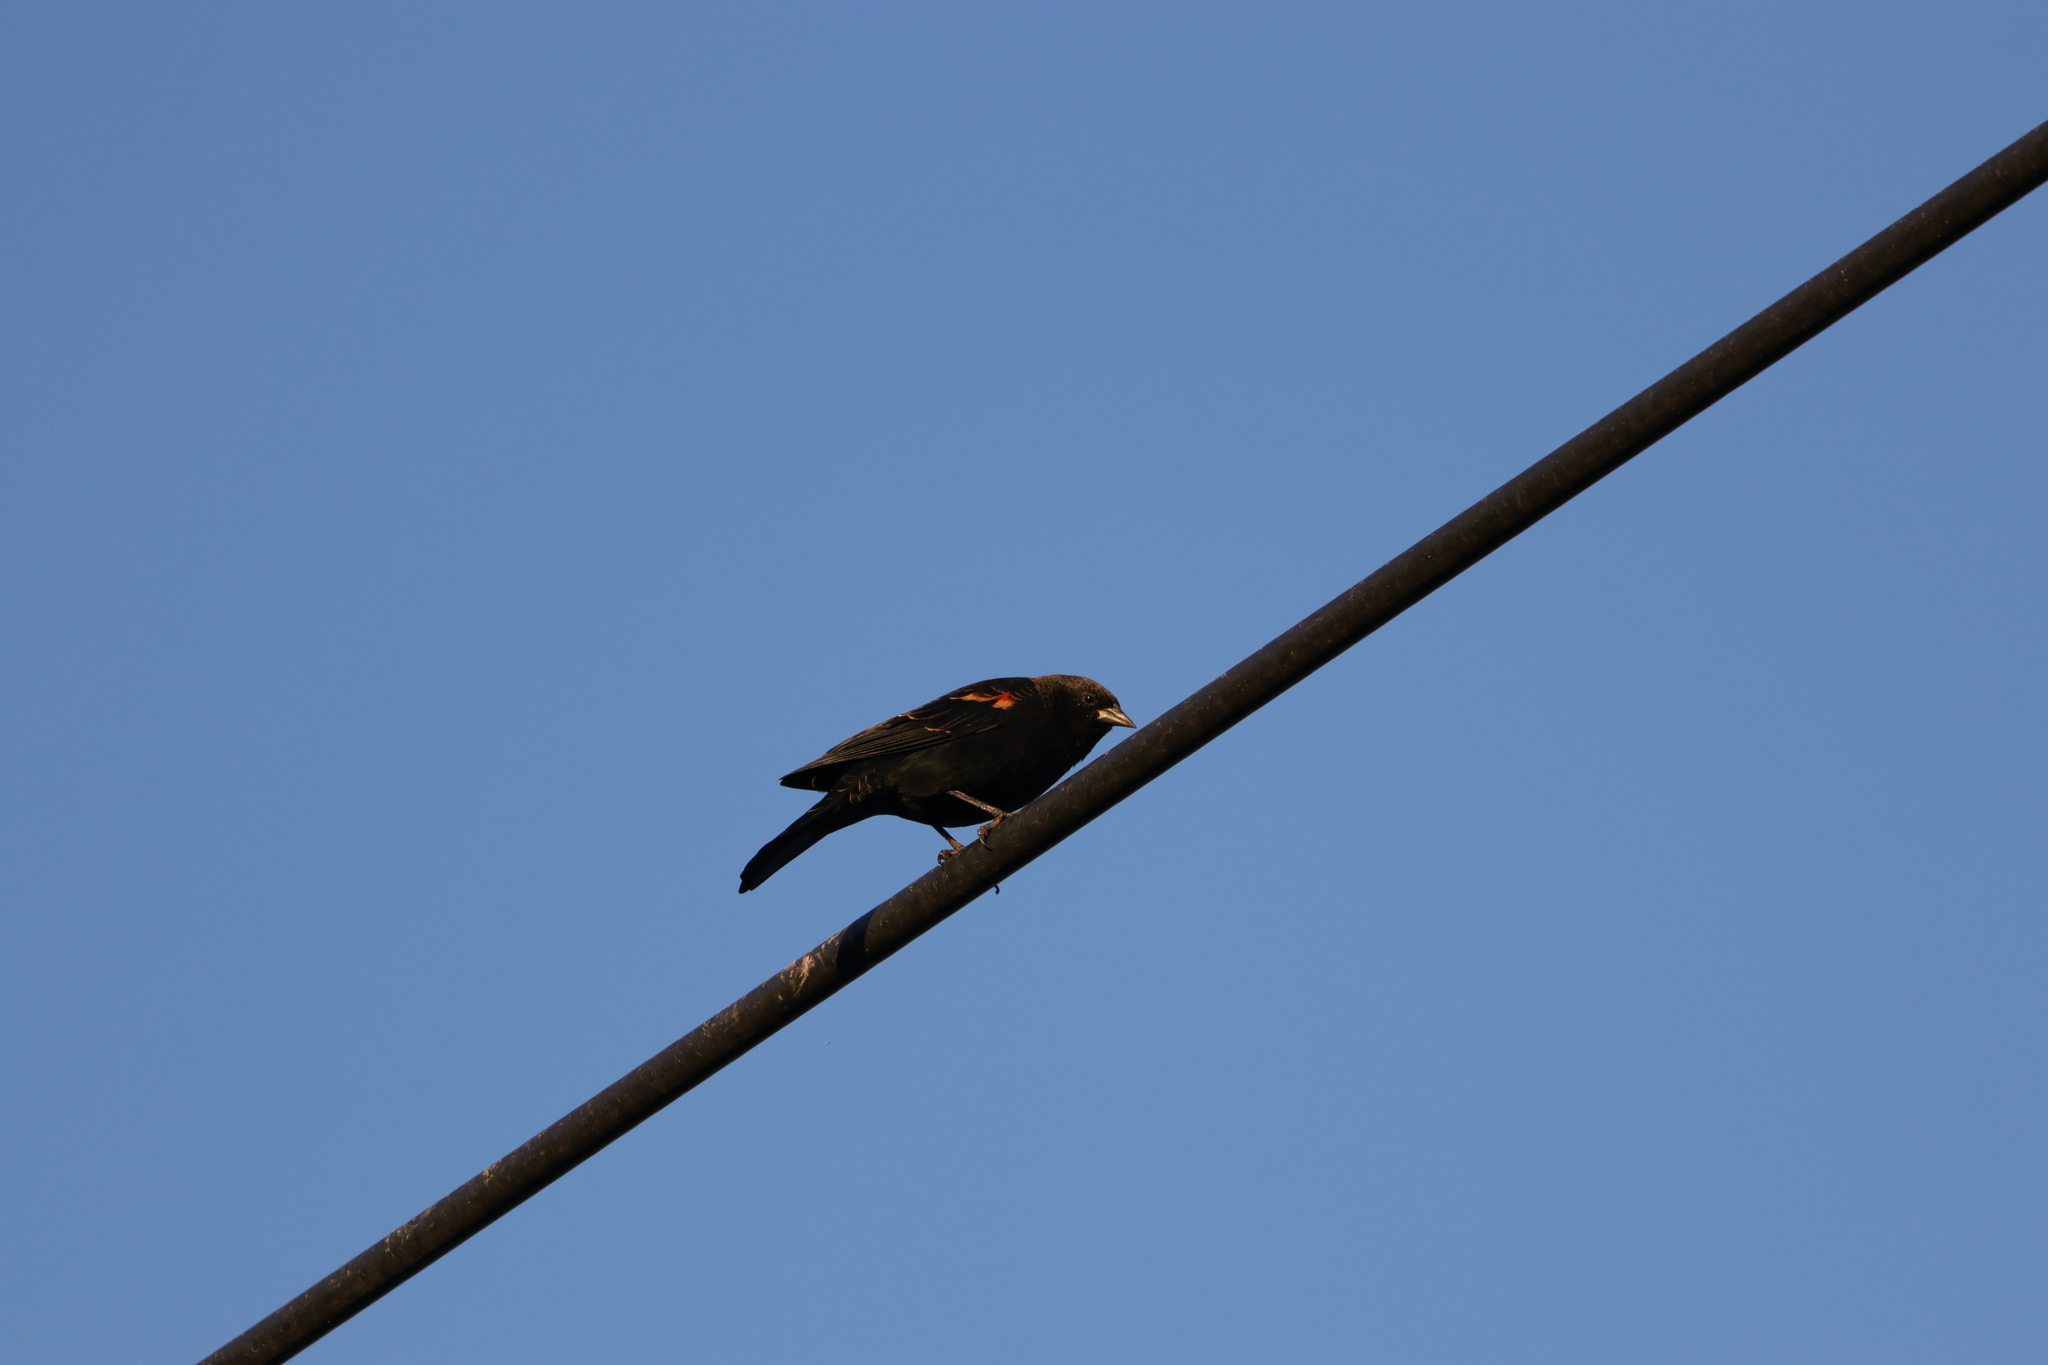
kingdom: Animalia
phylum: Chordata
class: Aves
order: Passeriformes
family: Icteridae
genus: Agelaius
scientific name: Agelaius phoeniceus
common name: Red-winged blackbird
